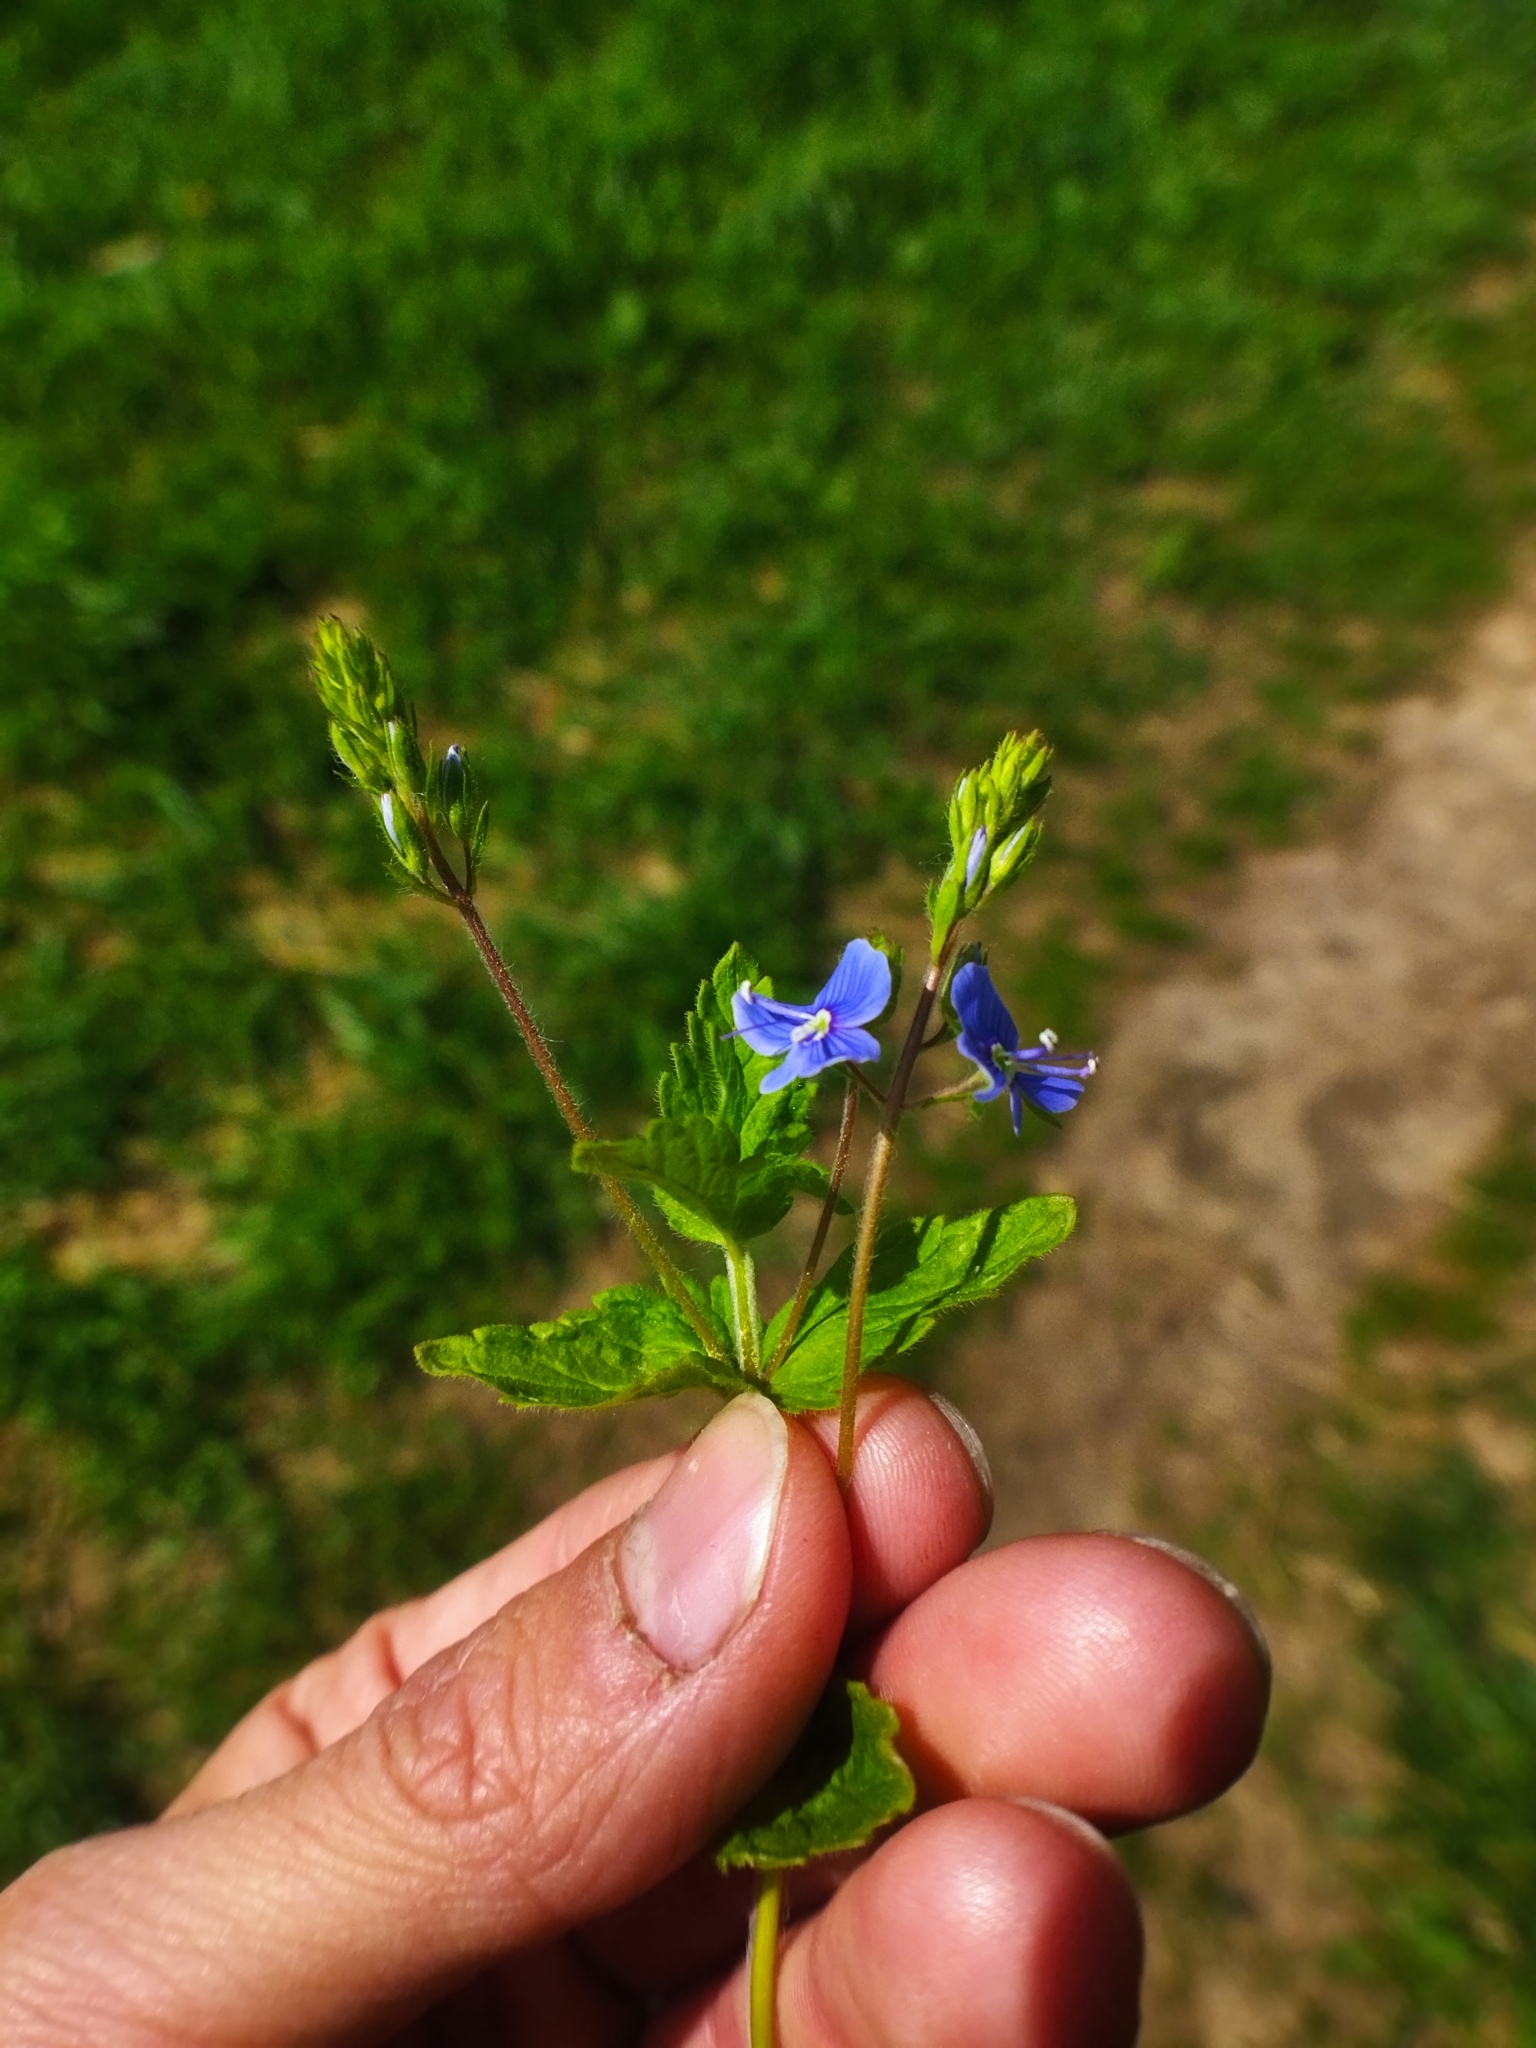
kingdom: Plantae
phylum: Tracheophyta
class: Magnoliopsida
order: Lamiales
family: Plantaginaceae
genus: Veronica
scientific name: Veronica chamaedrys
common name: Germander speedwell
